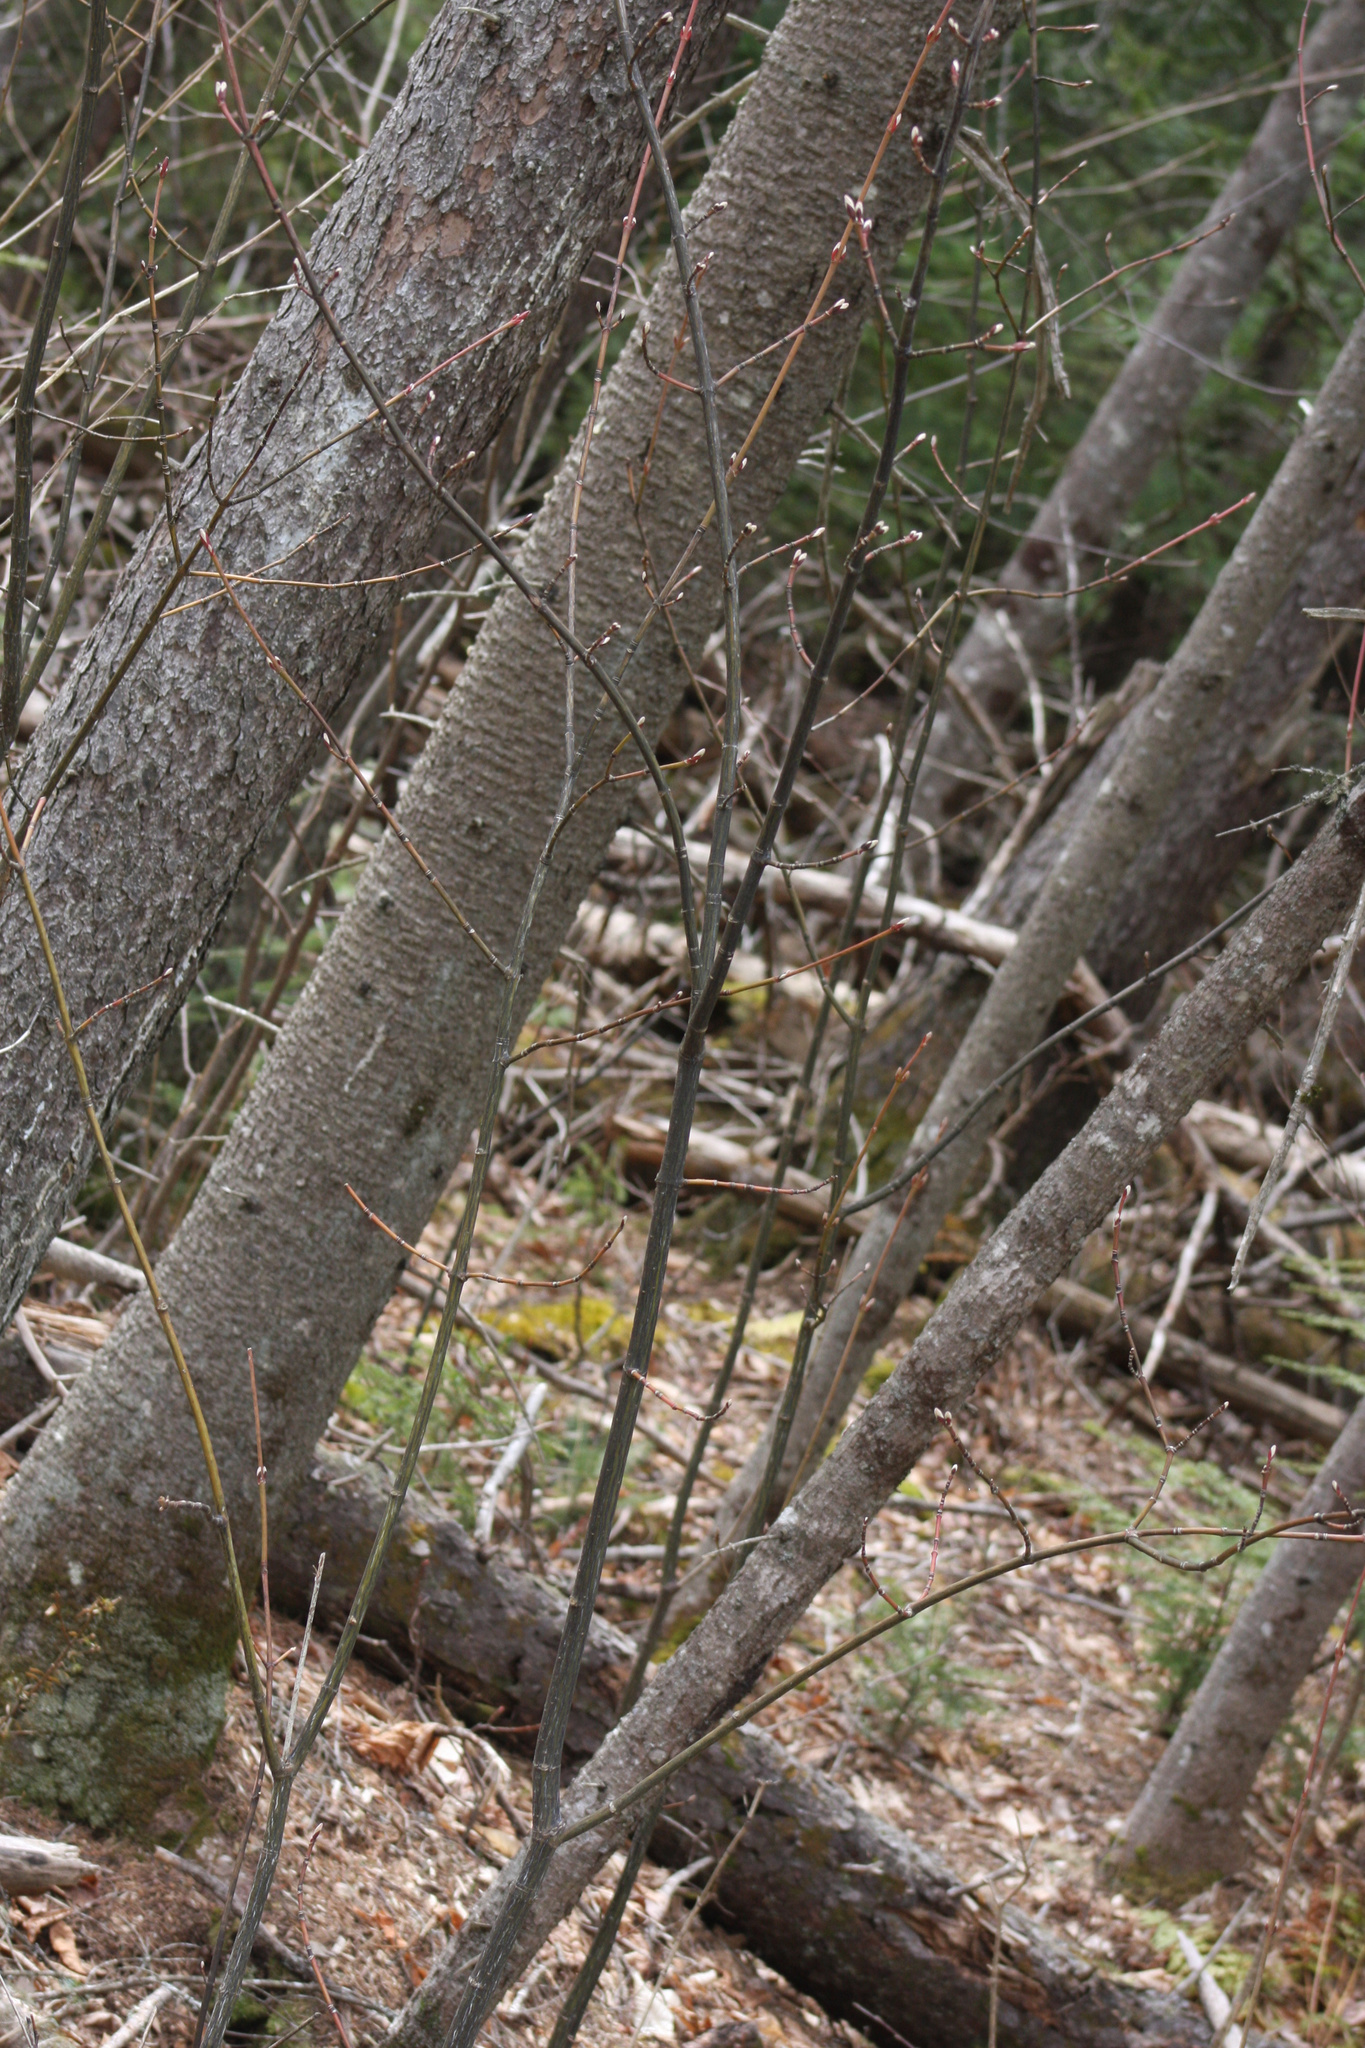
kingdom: Plantae
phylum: Tracheophyta
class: Magnoliopsida
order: Sapindales
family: Sapindaceae
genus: Acer
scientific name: Acer pensylvanicum
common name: Moosewood
